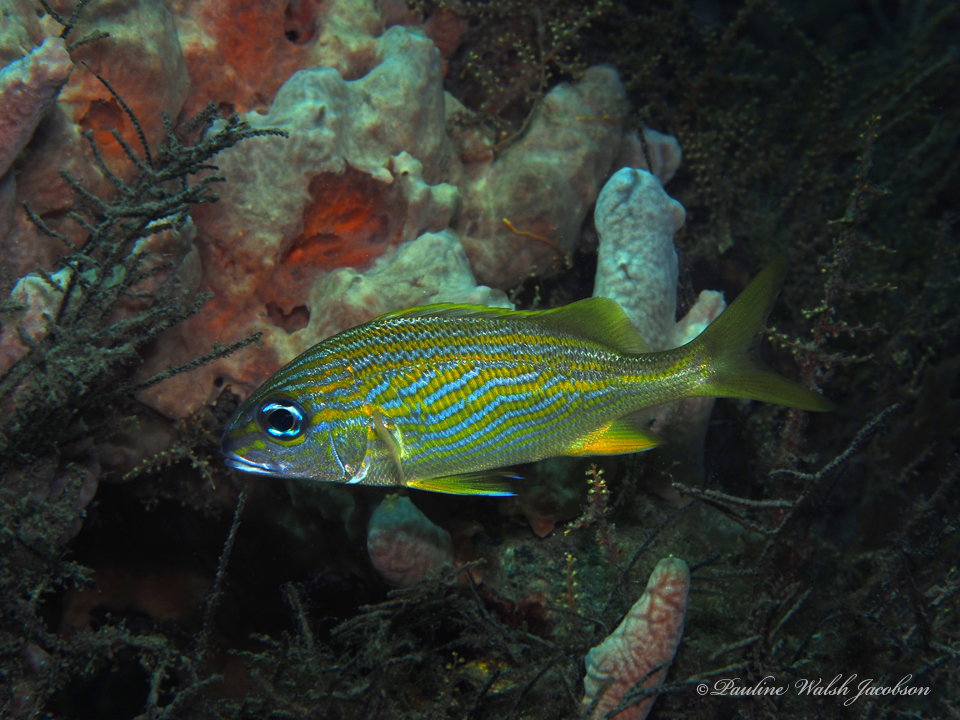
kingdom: Animalia
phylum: Chordata
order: Perciformes
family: Haemulidae
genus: Haemulon
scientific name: Haemulon flavolineatum
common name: French grunt
